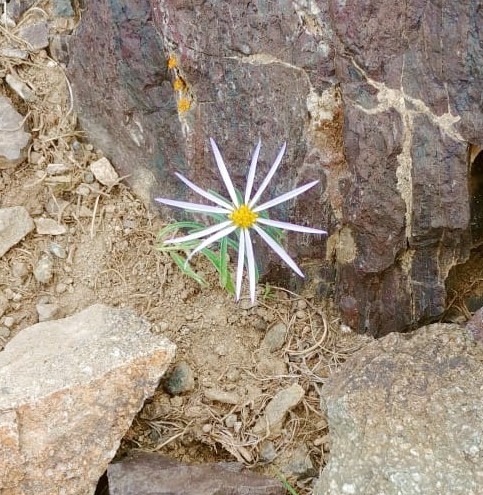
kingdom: Plantae
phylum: Tracheophyta
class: Magnoliopsida
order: Asterales
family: Asteraceae
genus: Heteropappus
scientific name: Heteropappus altaicus
